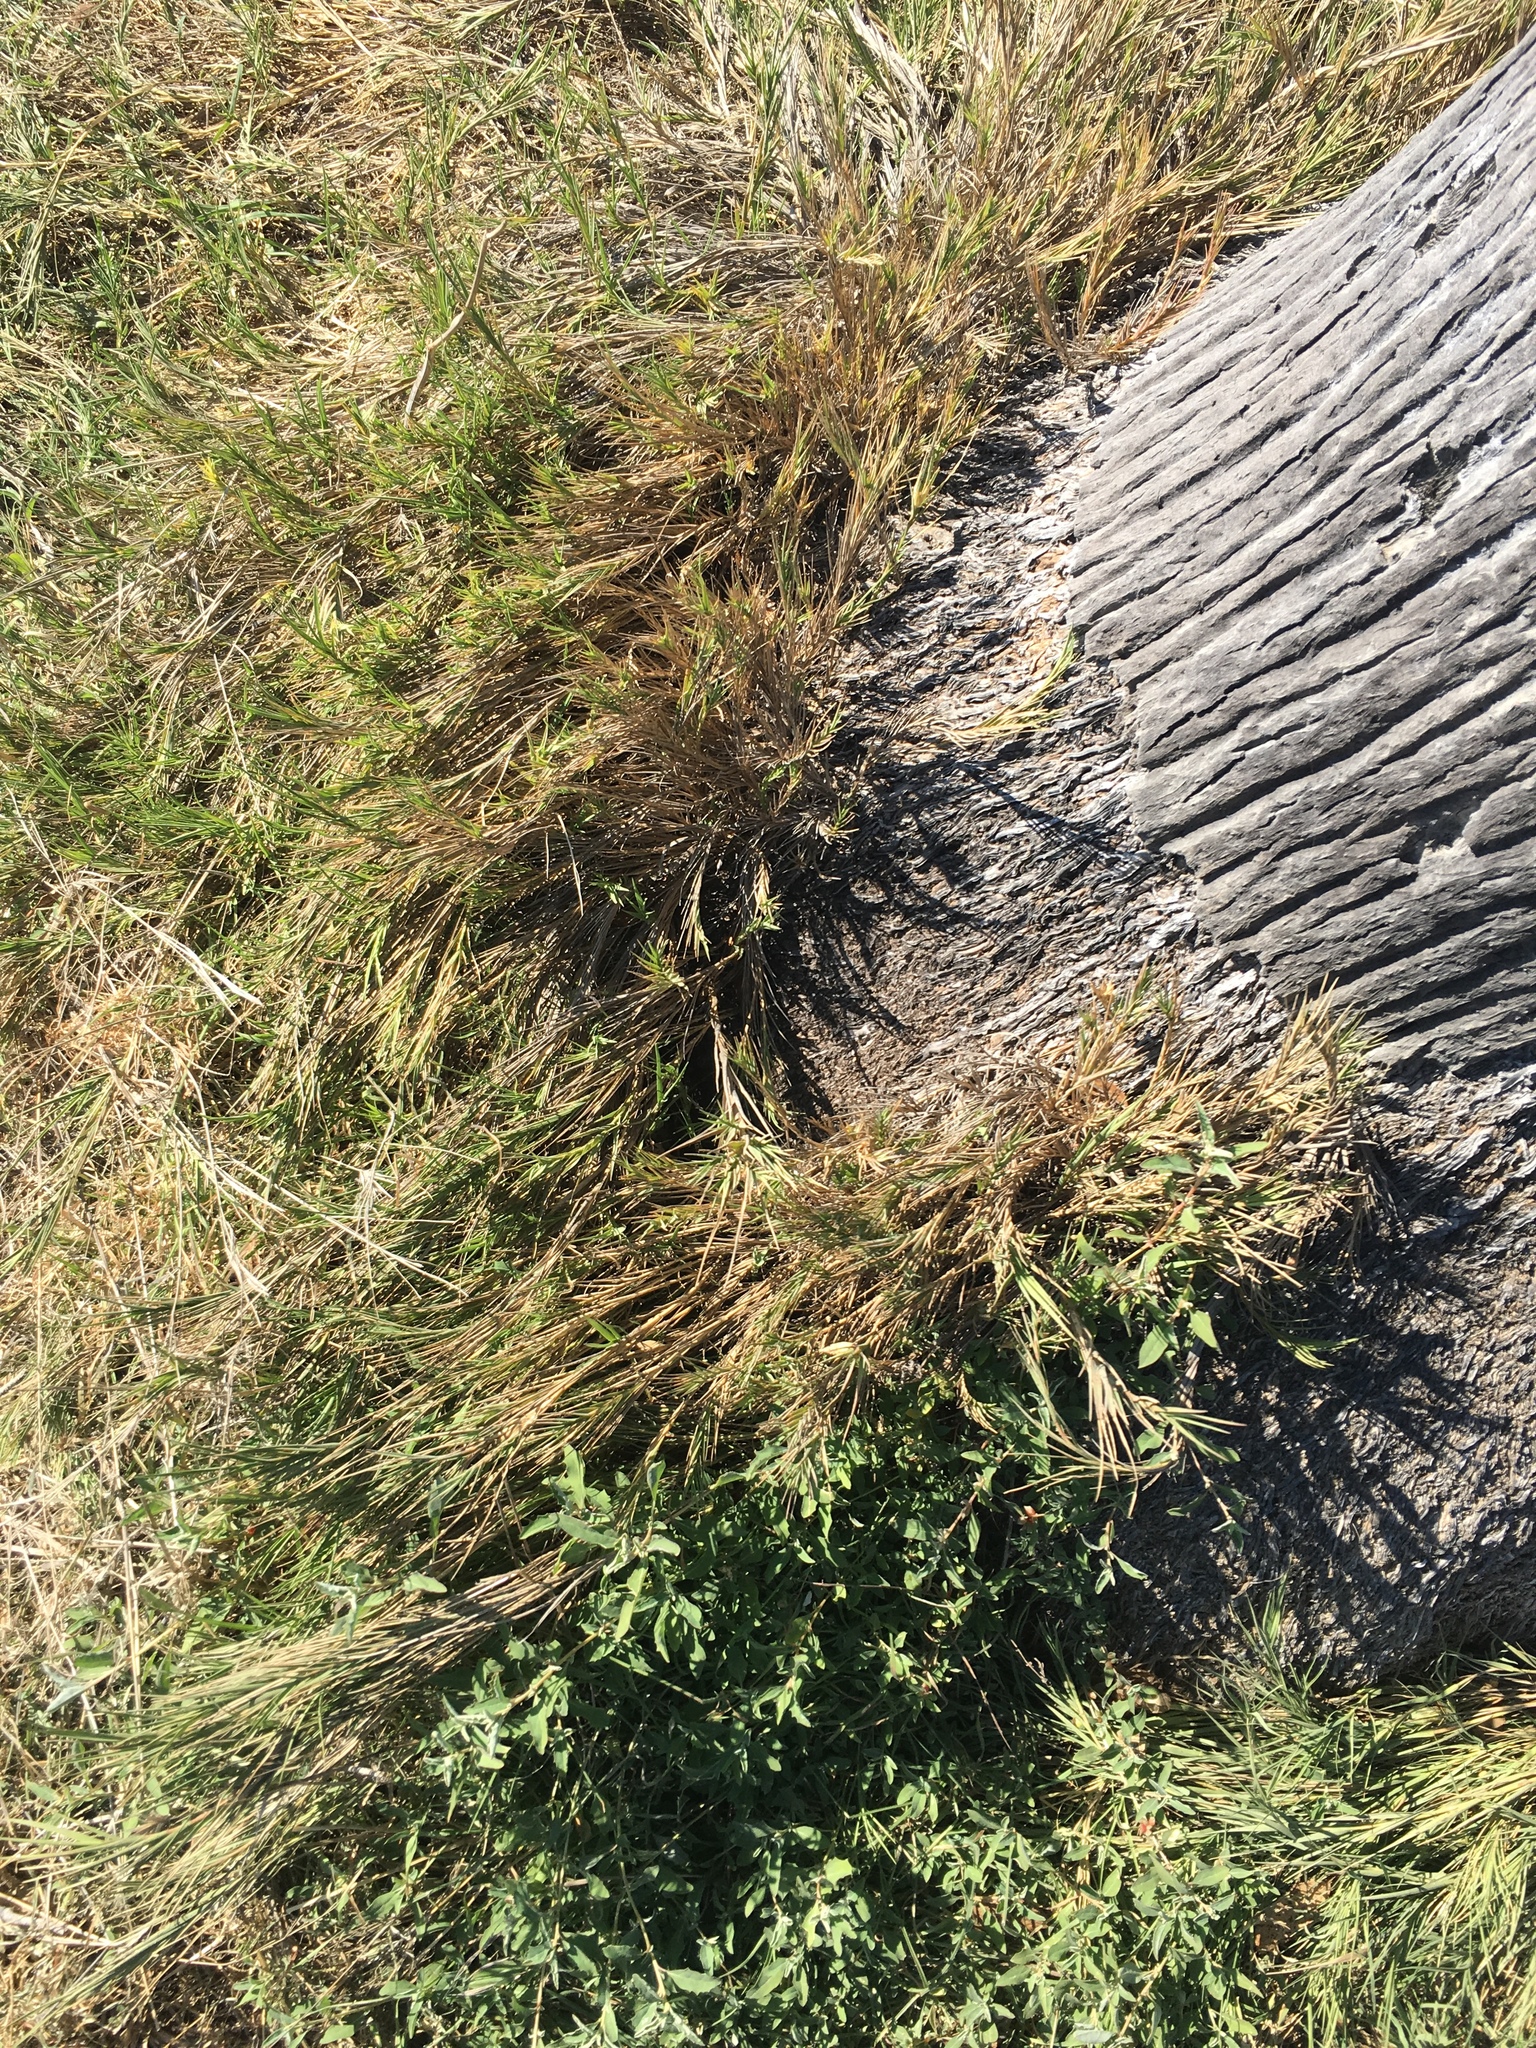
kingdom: Plantae
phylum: Tracheophyta
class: Liliopsida
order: Poales
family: Poaceae
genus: Distichlis
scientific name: Distichlis spicata
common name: Saltgrass
